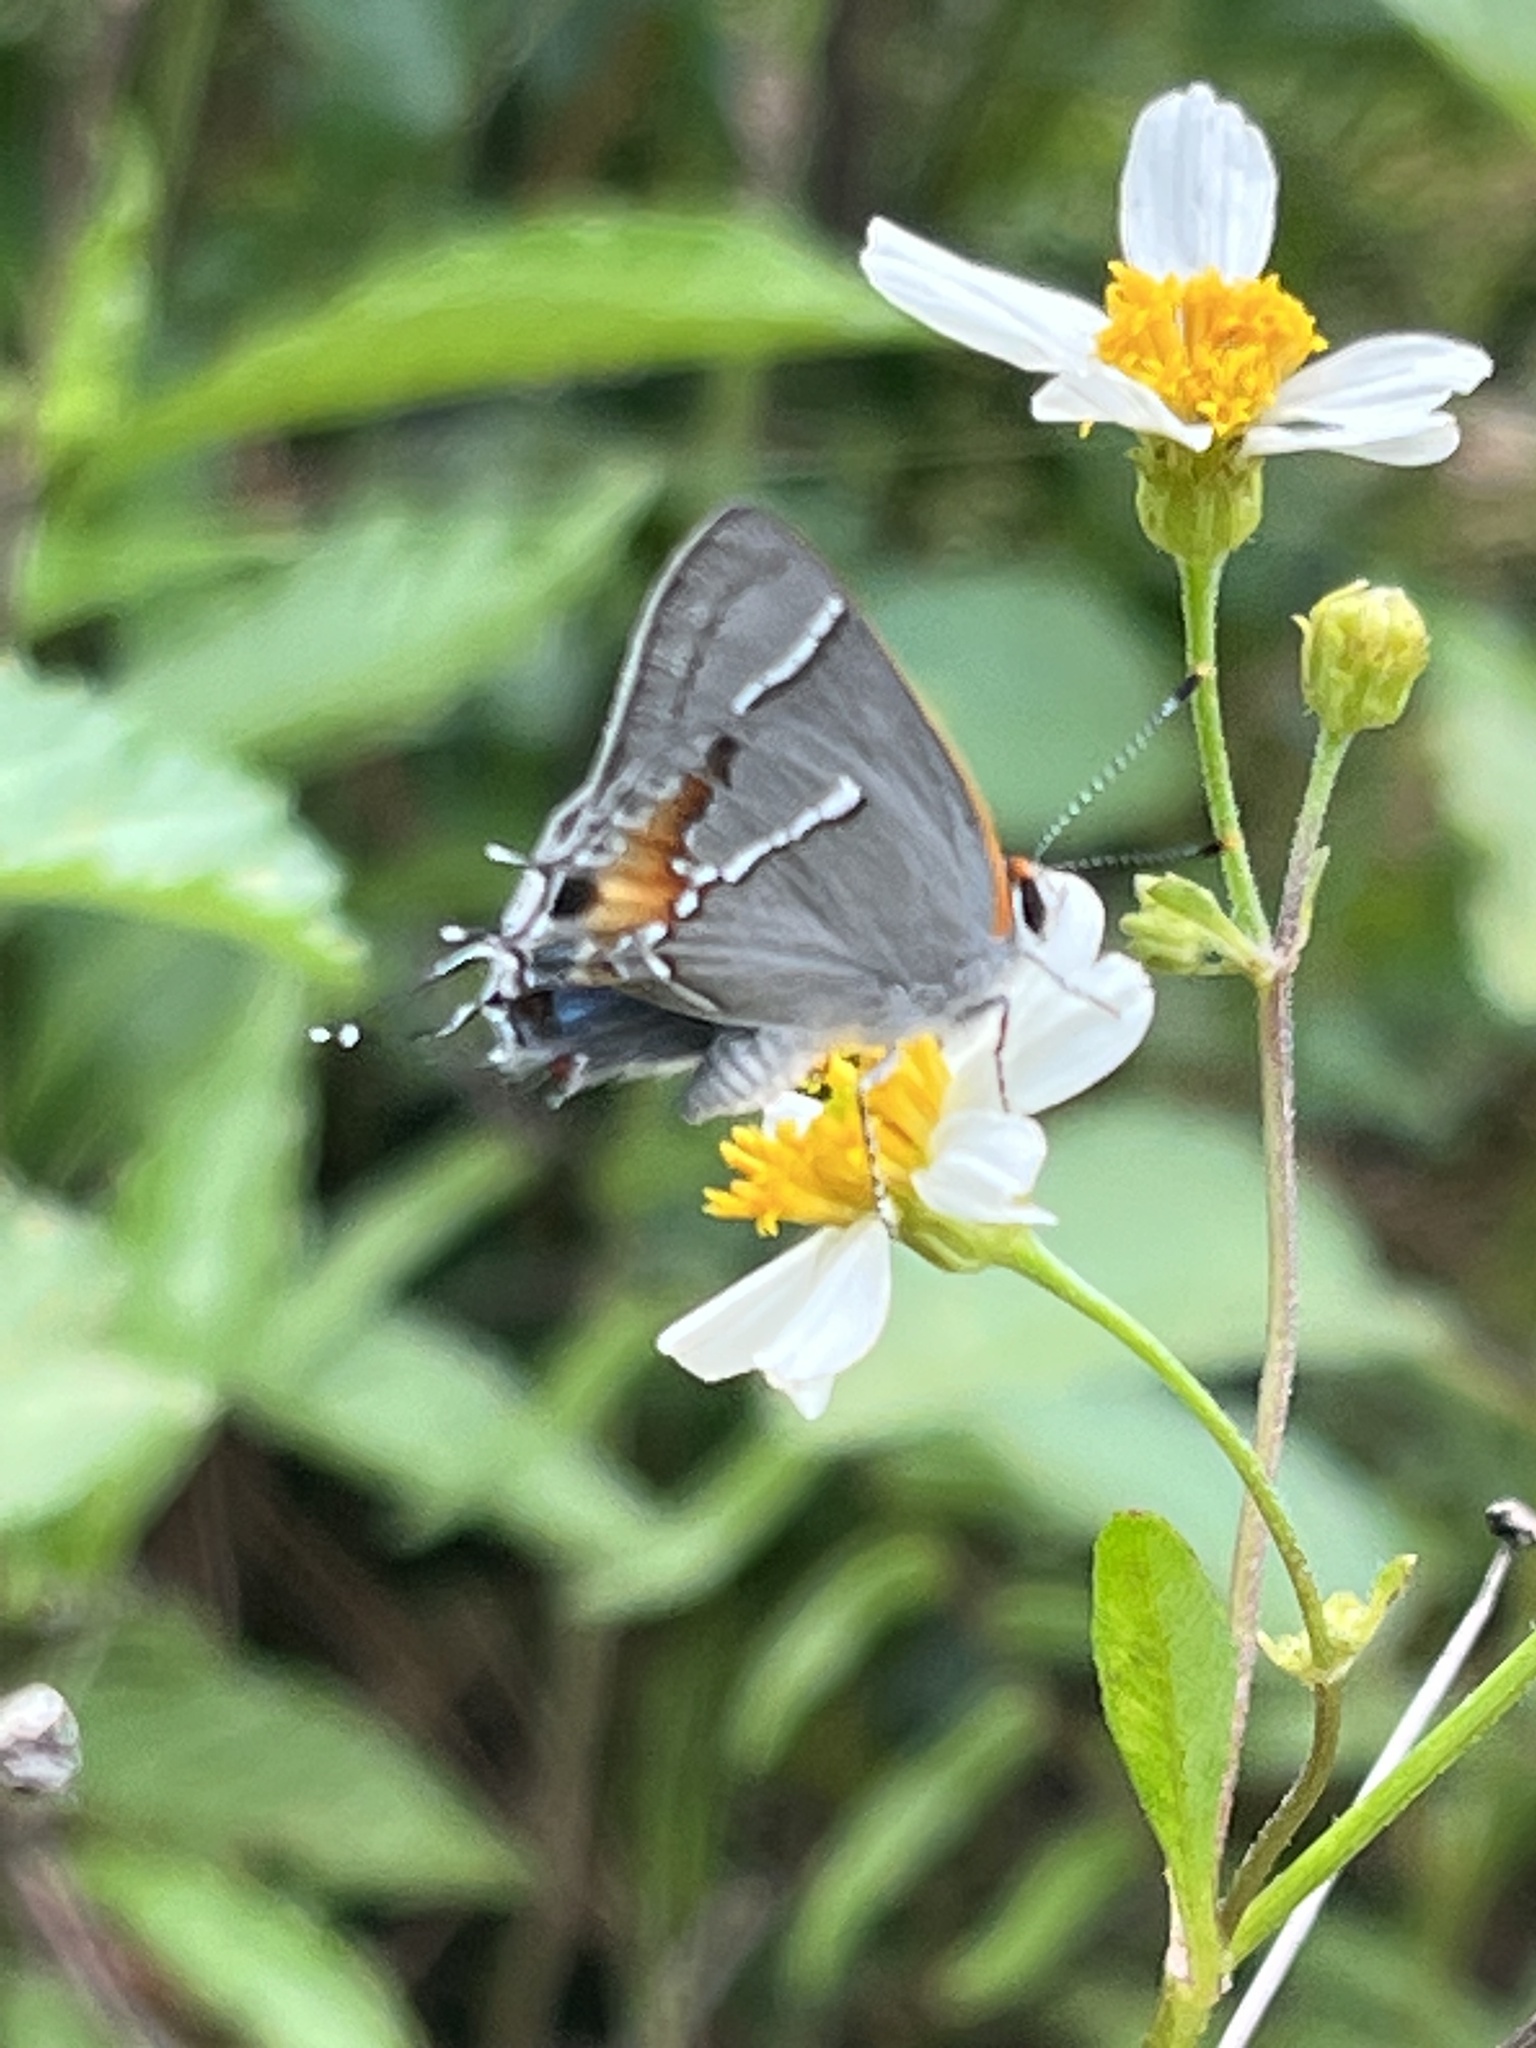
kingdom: Animalia
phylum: Arthropoda
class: Insecta
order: Lepidoptera
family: Lycaenidae
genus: Thecla
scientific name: Thecla martialis
